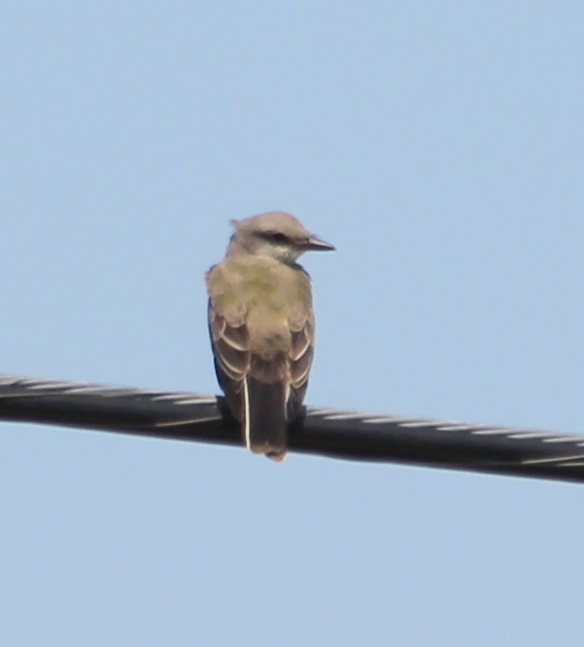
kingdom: Animalia
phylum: Chordata
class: Aves
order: Passeriformes
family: Tyrannidae
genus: Tyrannus
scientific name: Tyrannus verticalis
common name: Western kingbird
